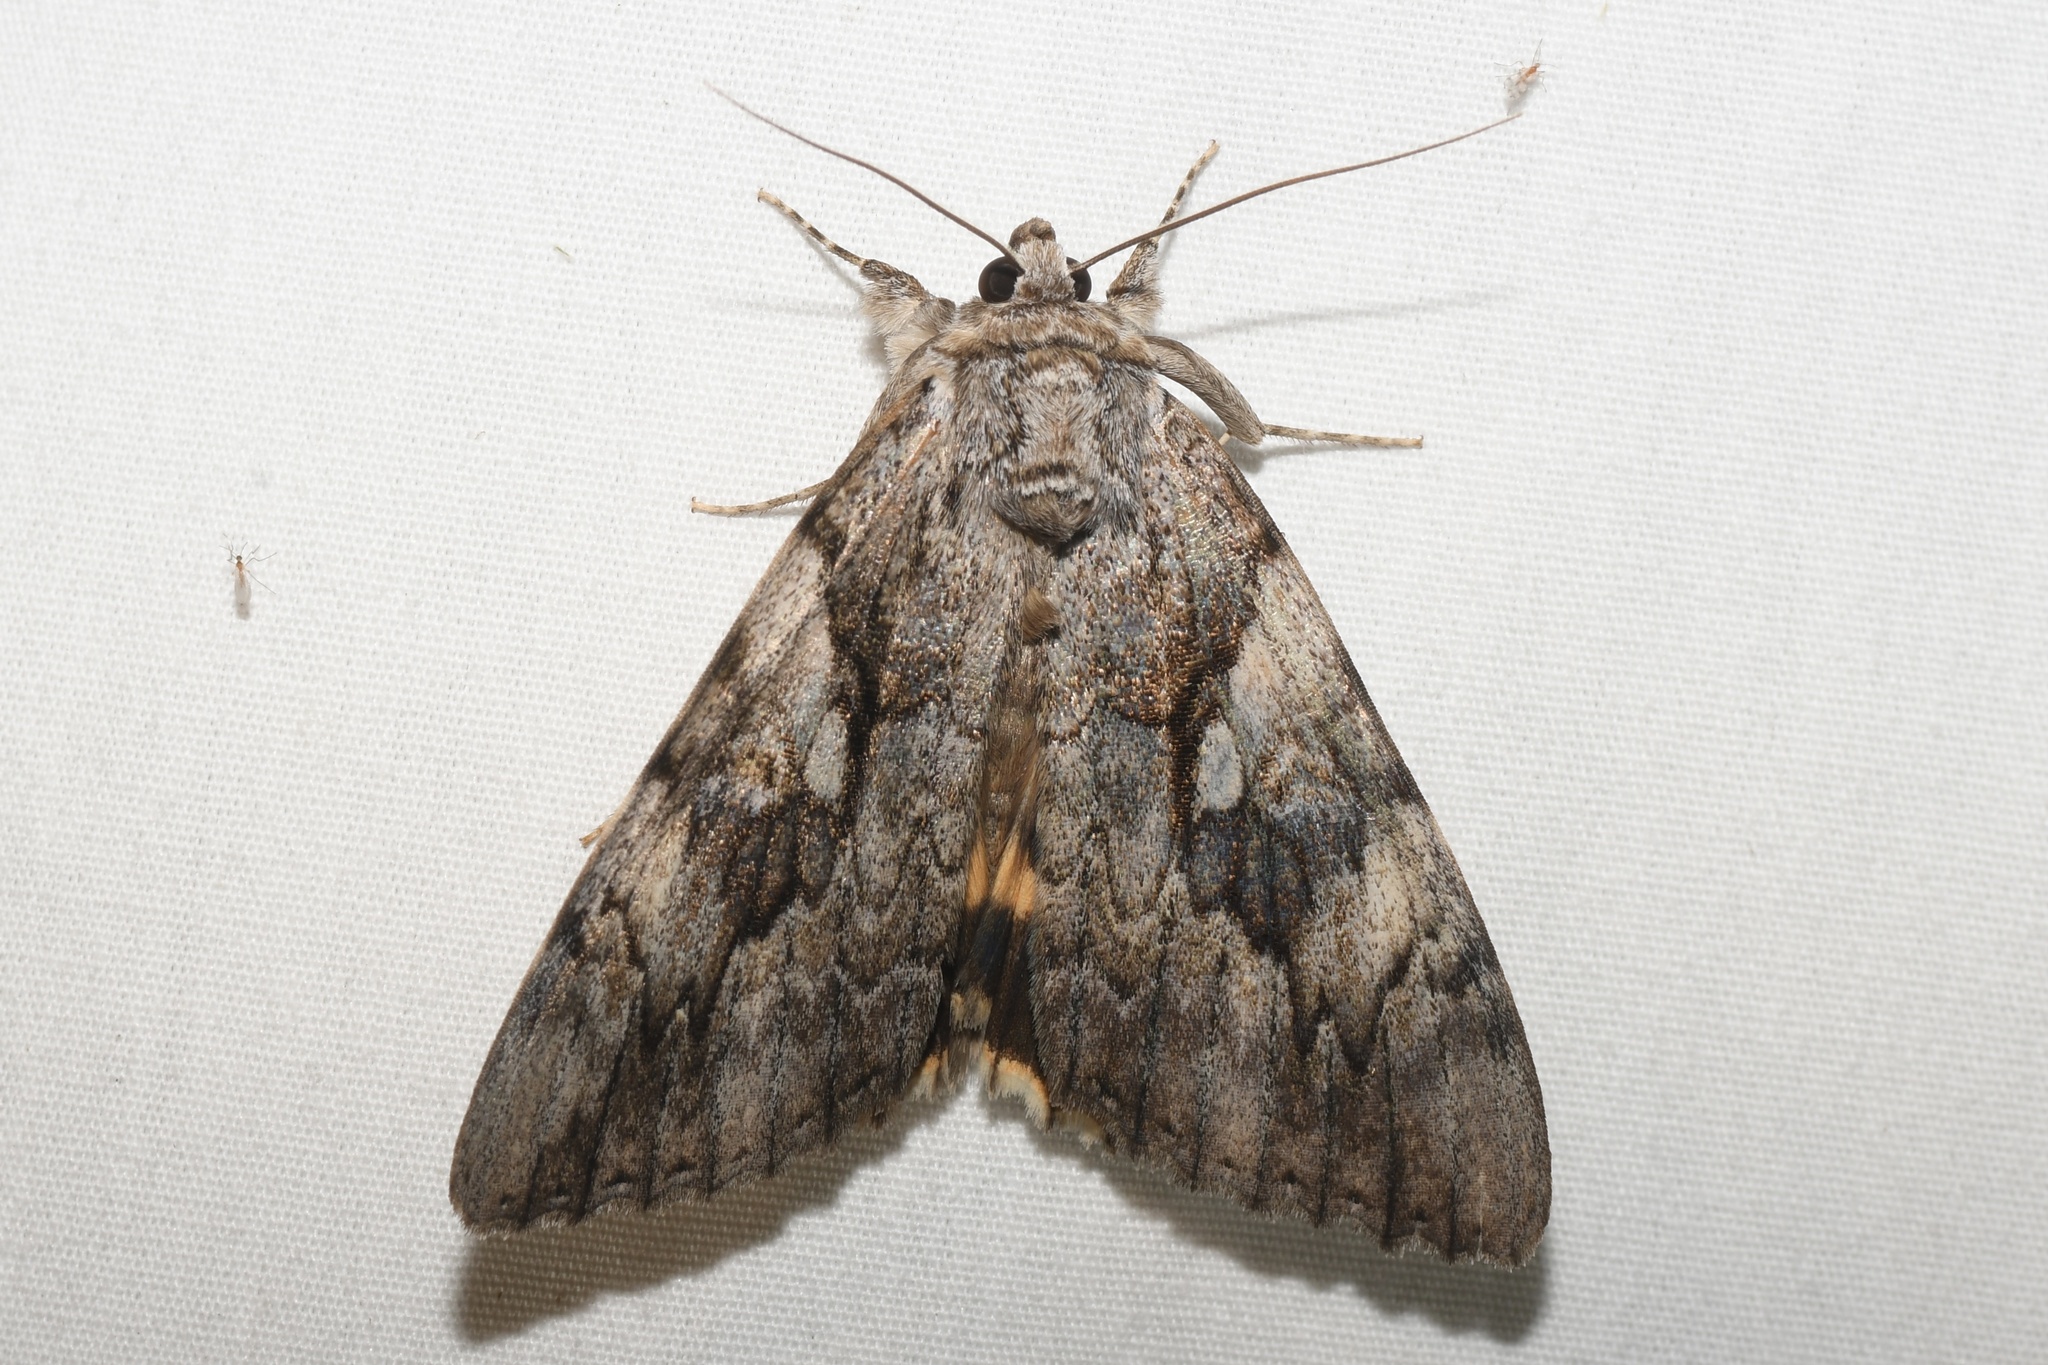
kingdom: Animalia
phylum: Arthropoda
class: Insecta
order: Lepidoptera
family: Erebidae
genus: Catocala
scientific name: Catocala cerogama
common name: Yellow banded underwing
